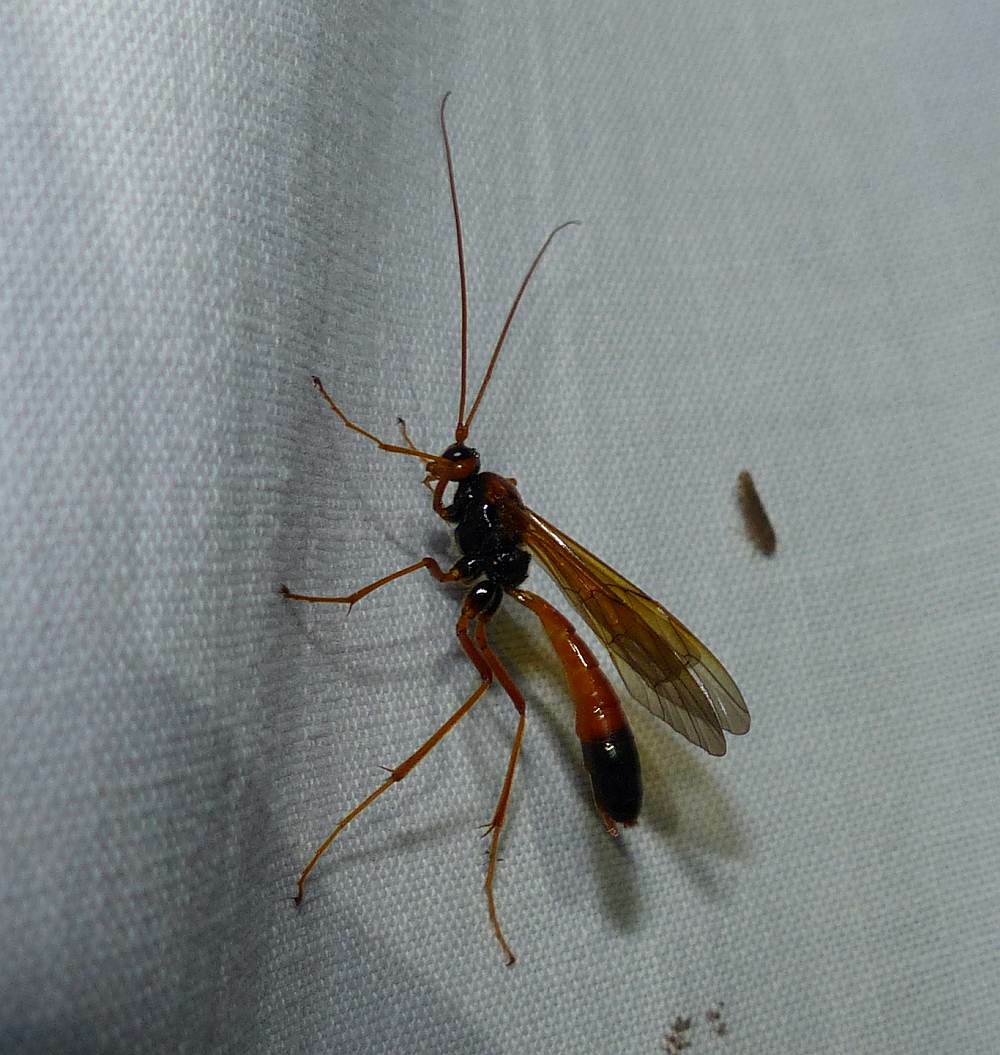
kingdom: Animalia
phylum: Arthropoda
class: Insecta
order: Hymenoptera
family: Ichneumonidae
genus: Opheltes
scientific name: Opheltes glaucopterus
